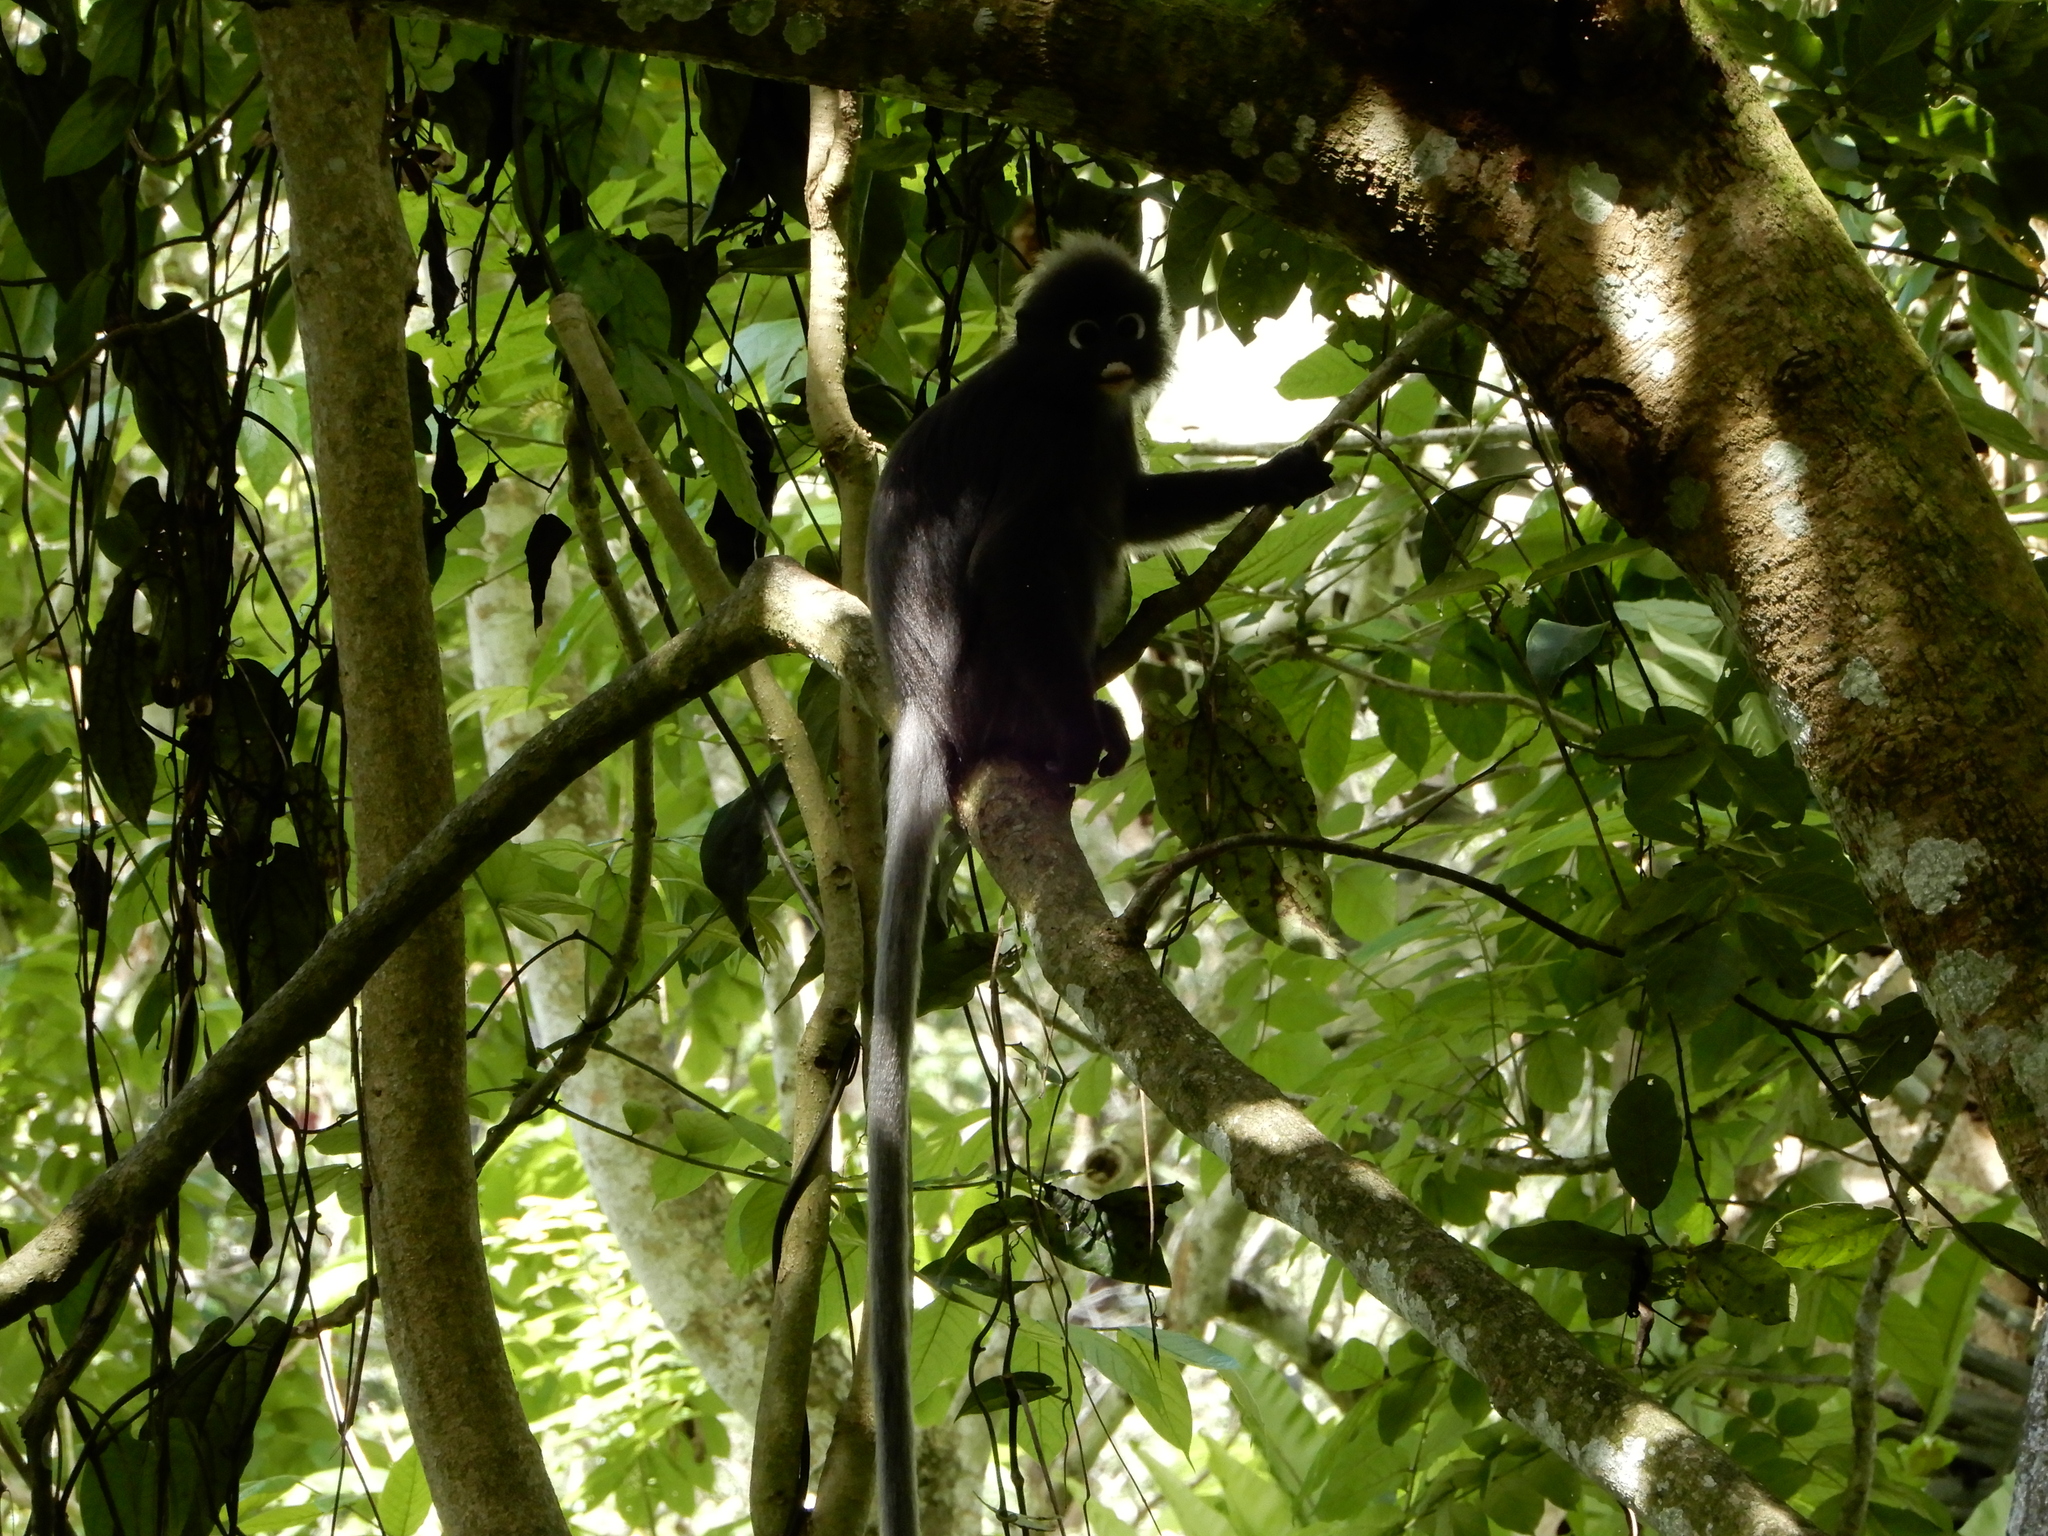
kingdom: Animalia
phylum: Chordata
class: Mammalia
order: Primates
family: Cercopithecidae
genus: Trachypithecus
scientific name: Trachypithecus obscurus
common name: Dusky leaf-monkey
